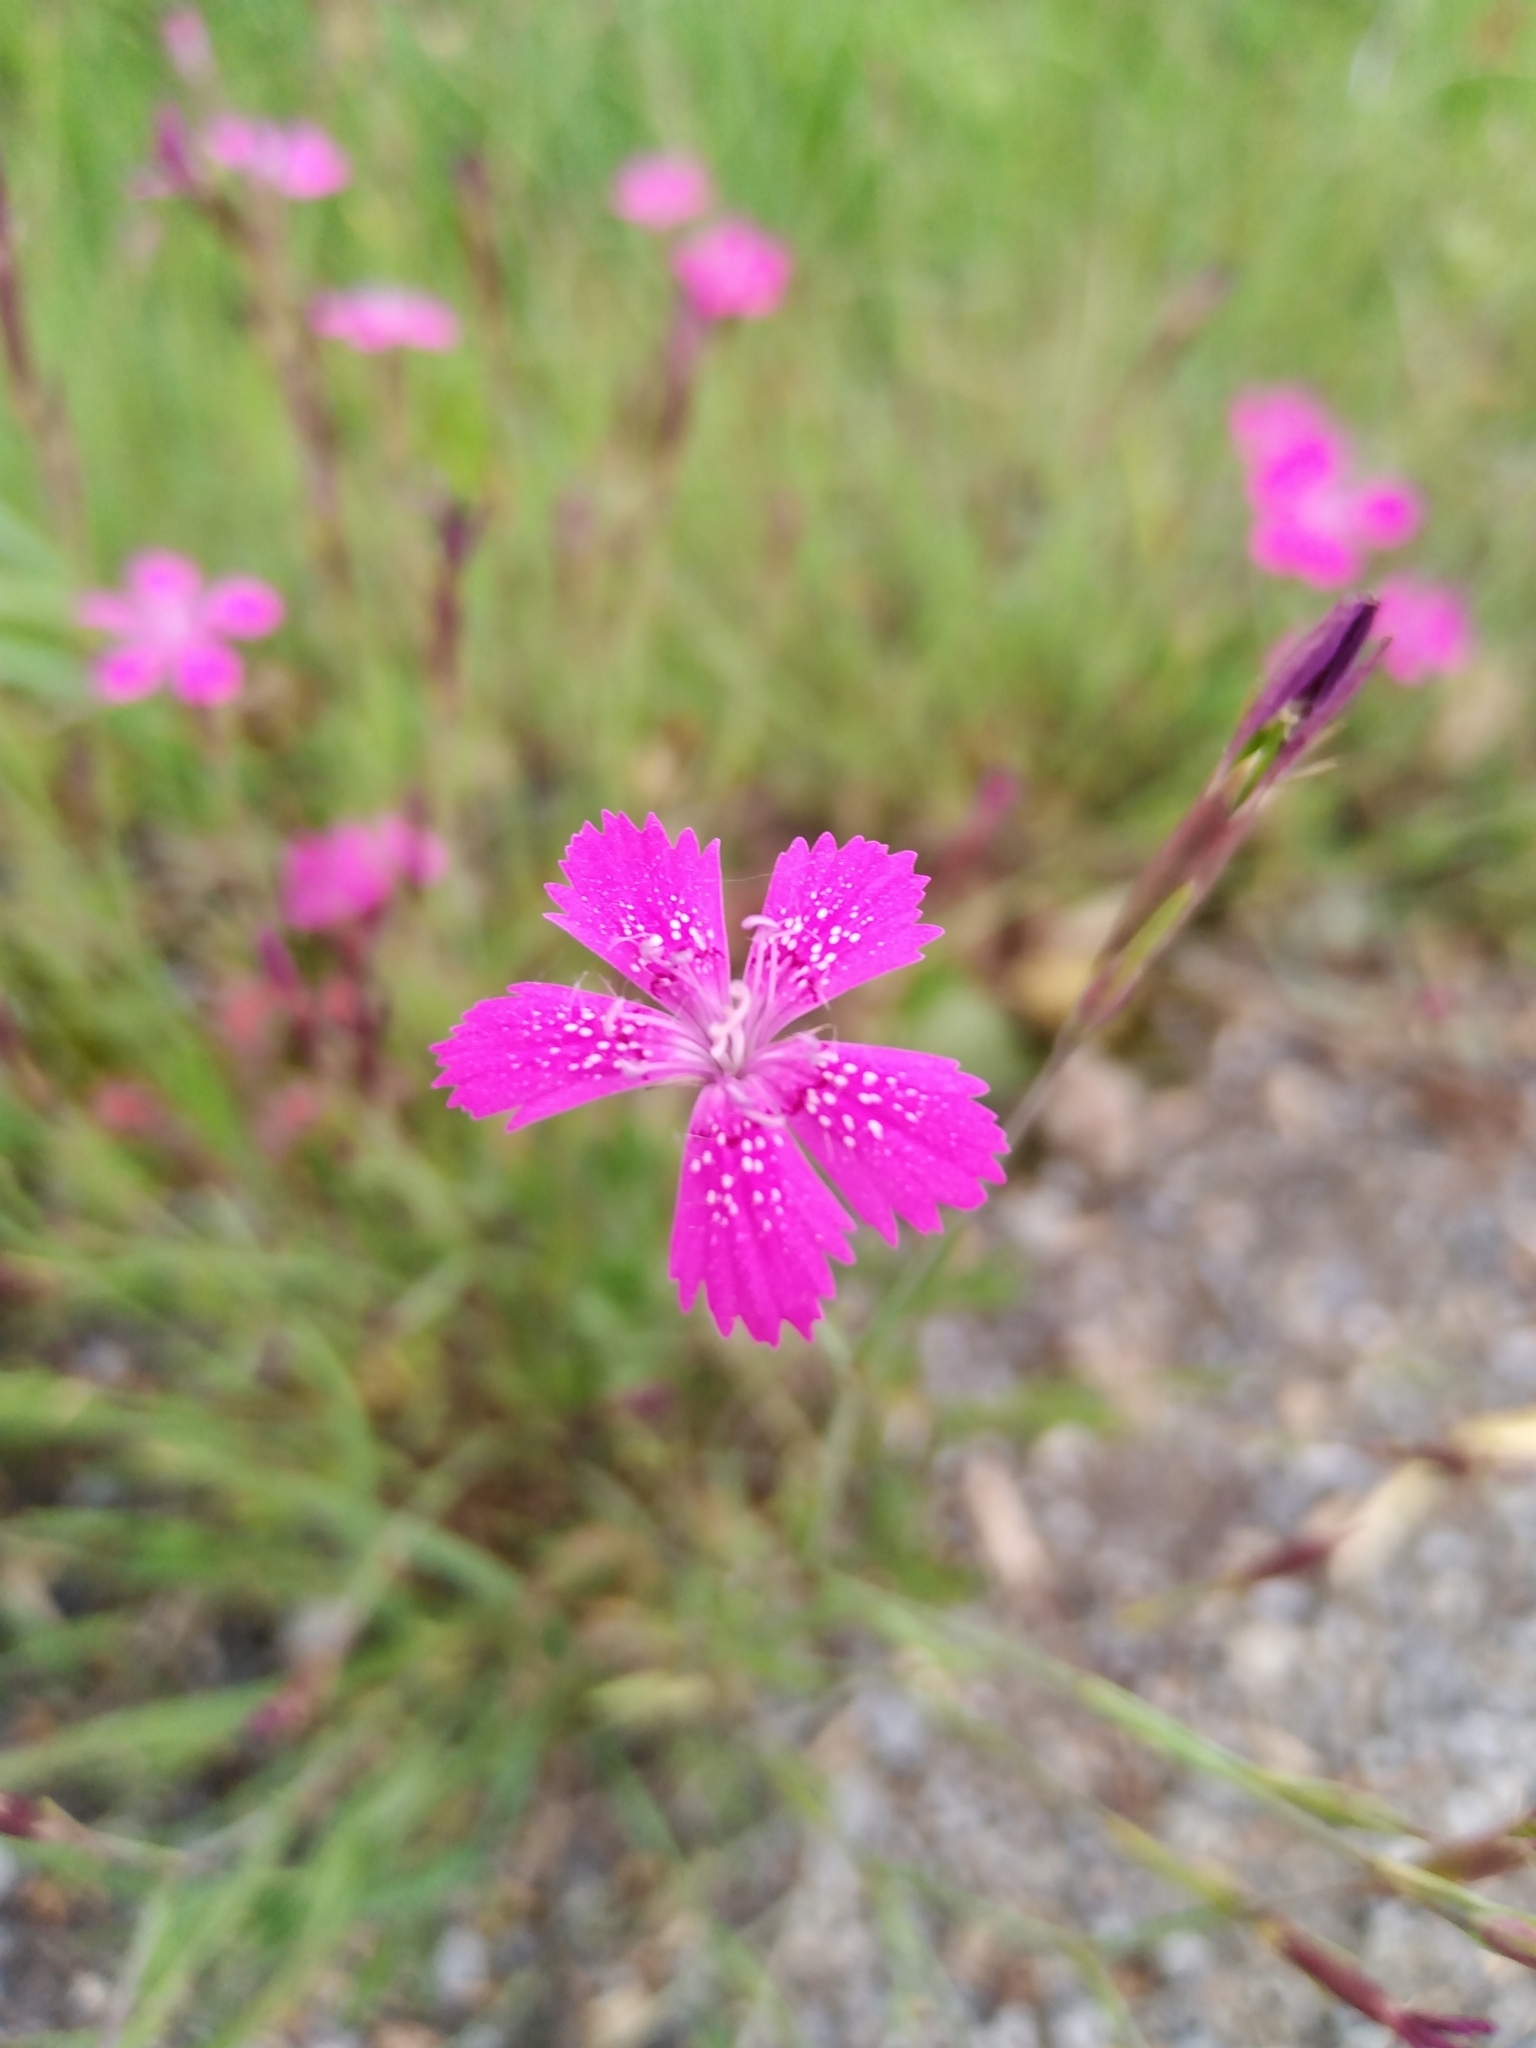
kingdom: Plantae
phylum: Tracheophyta
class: Magnoliopsida
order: Caryophyllales
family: Caryophyllaceae
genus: Dianthus
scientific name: Dianthus deltoides
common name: Maiden pink
